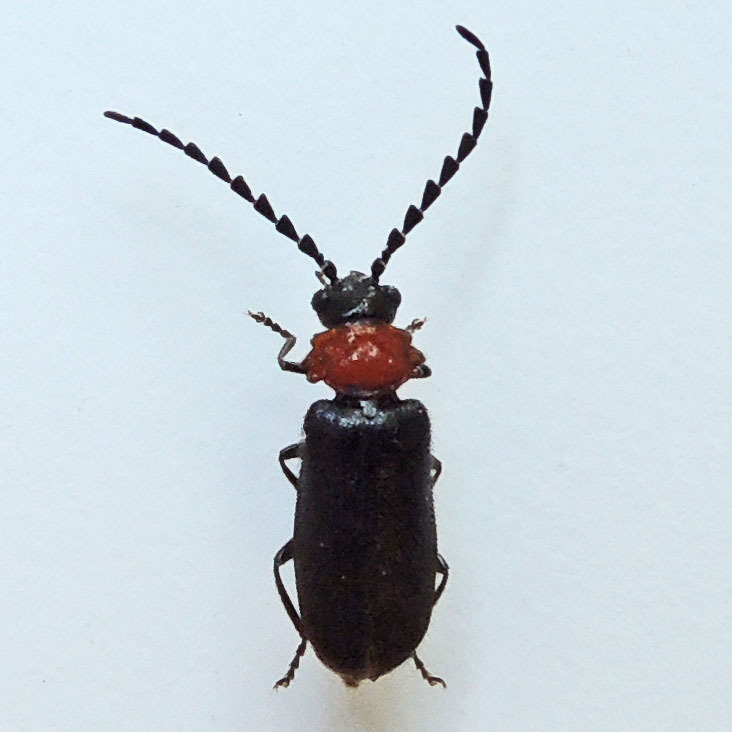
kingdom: Animalia
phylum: Arthropoda
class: Insecta
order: Coleoptera
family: Cantharidae
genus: Ditemnus
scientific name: Ditemnus latilobus
